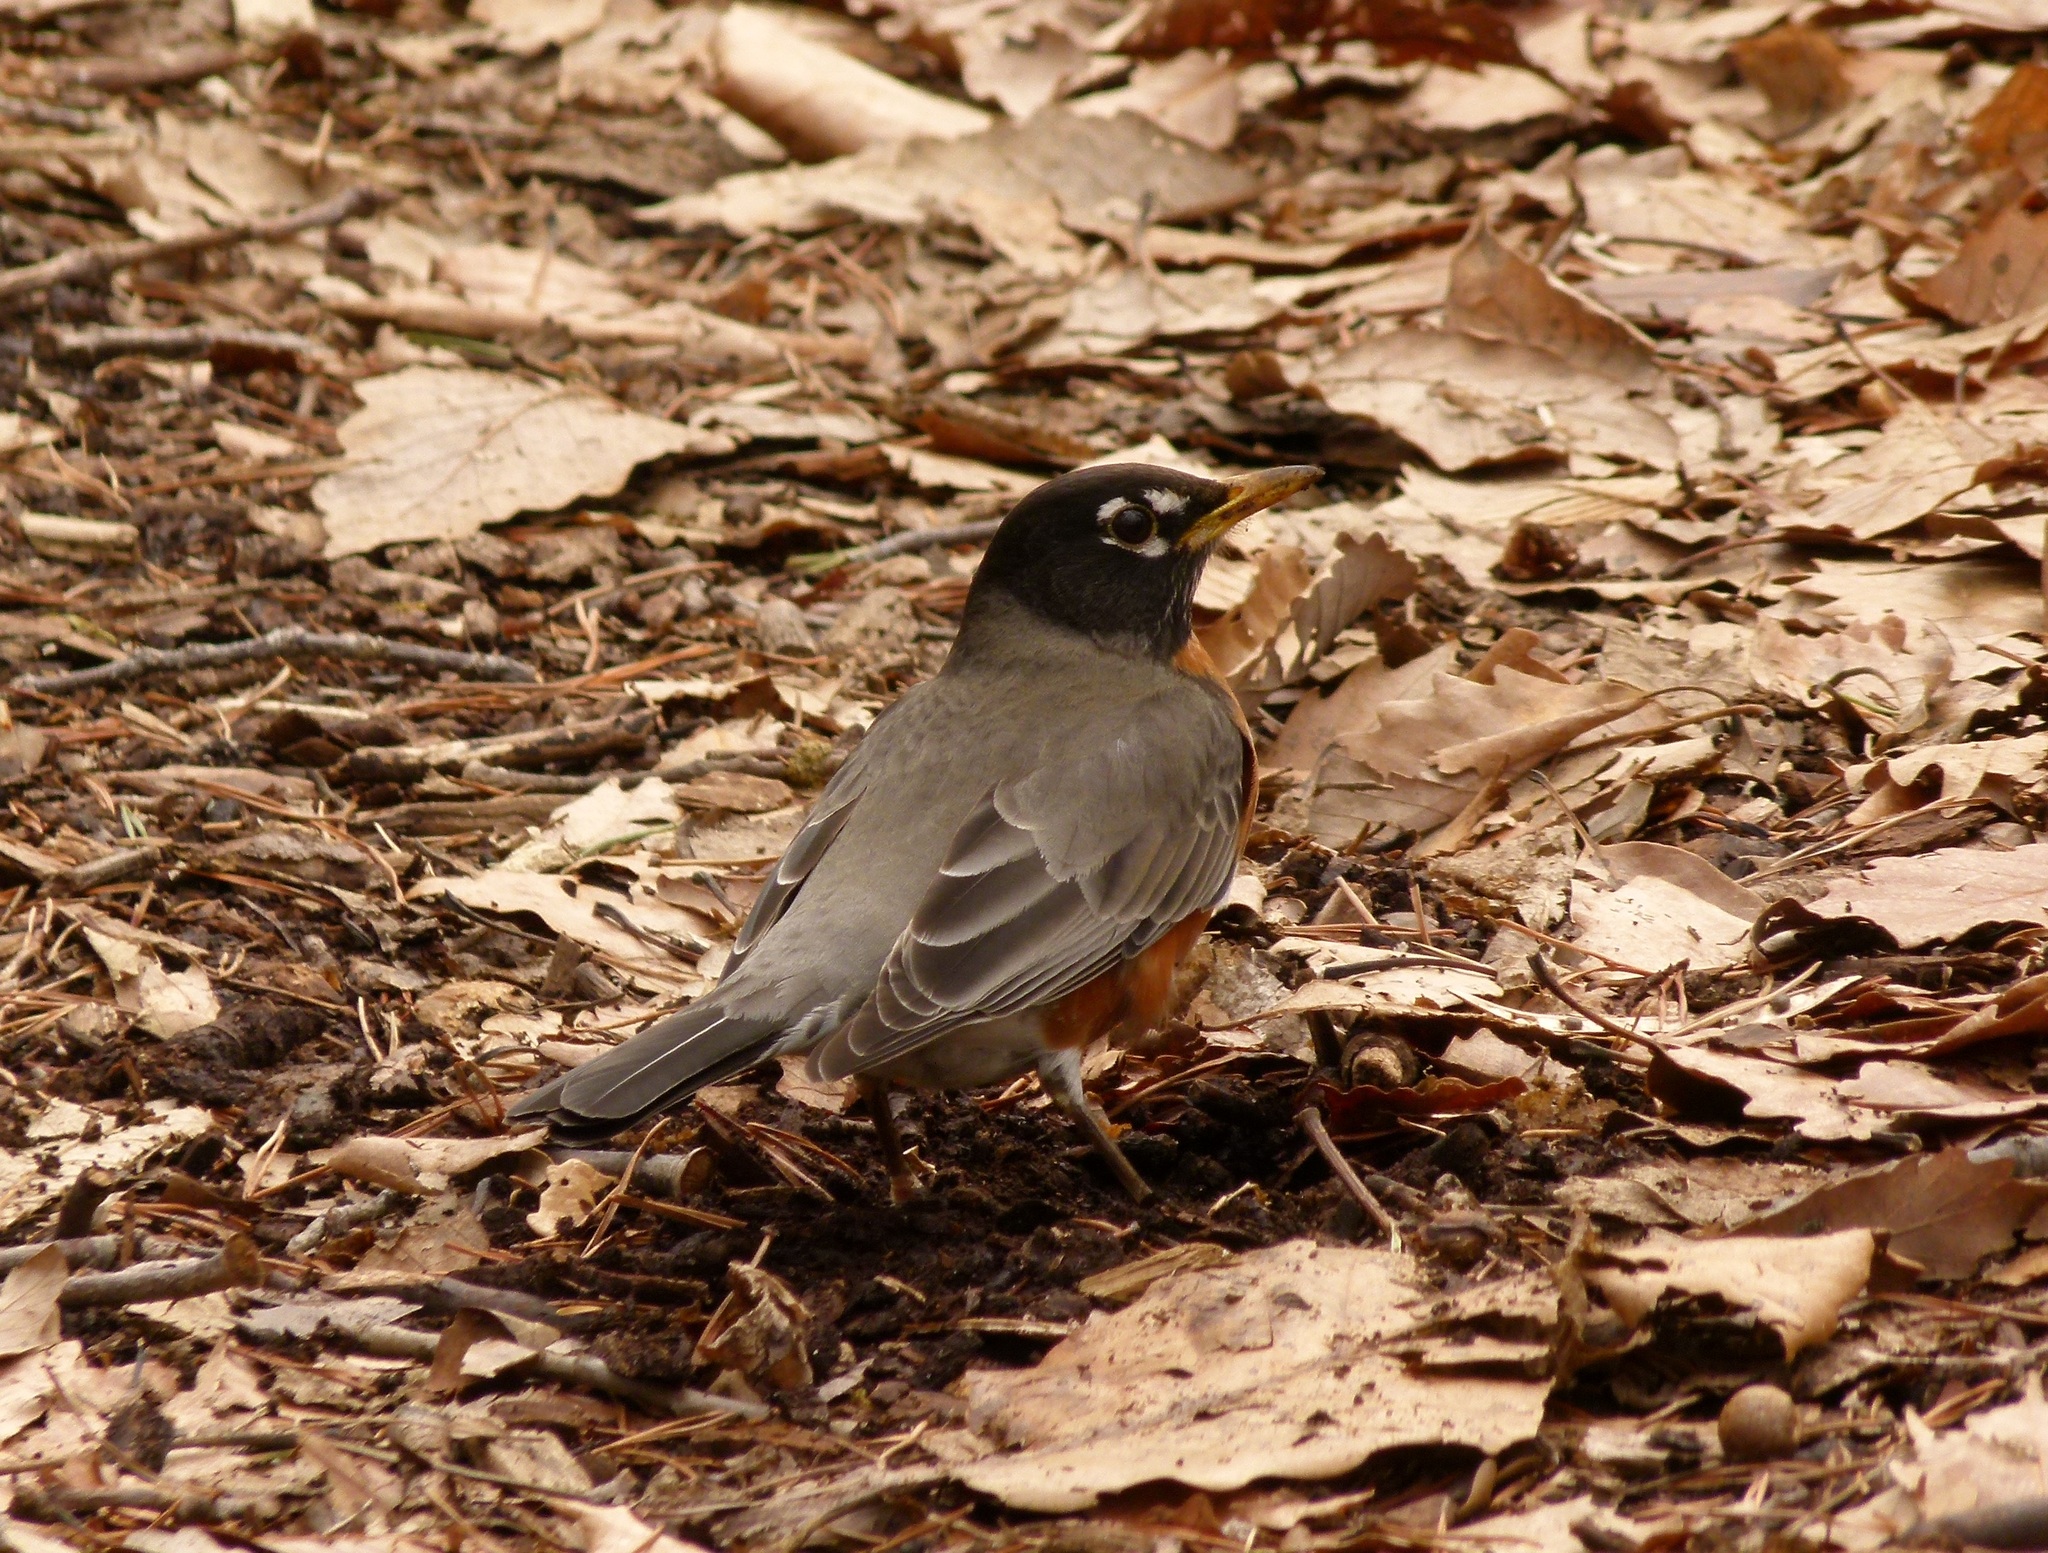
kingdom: Animalia
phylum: Chordata
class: Aves
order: Passeriformes
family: Turdidae
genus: Turdus
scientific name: Turdus migratorius
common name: American robin
